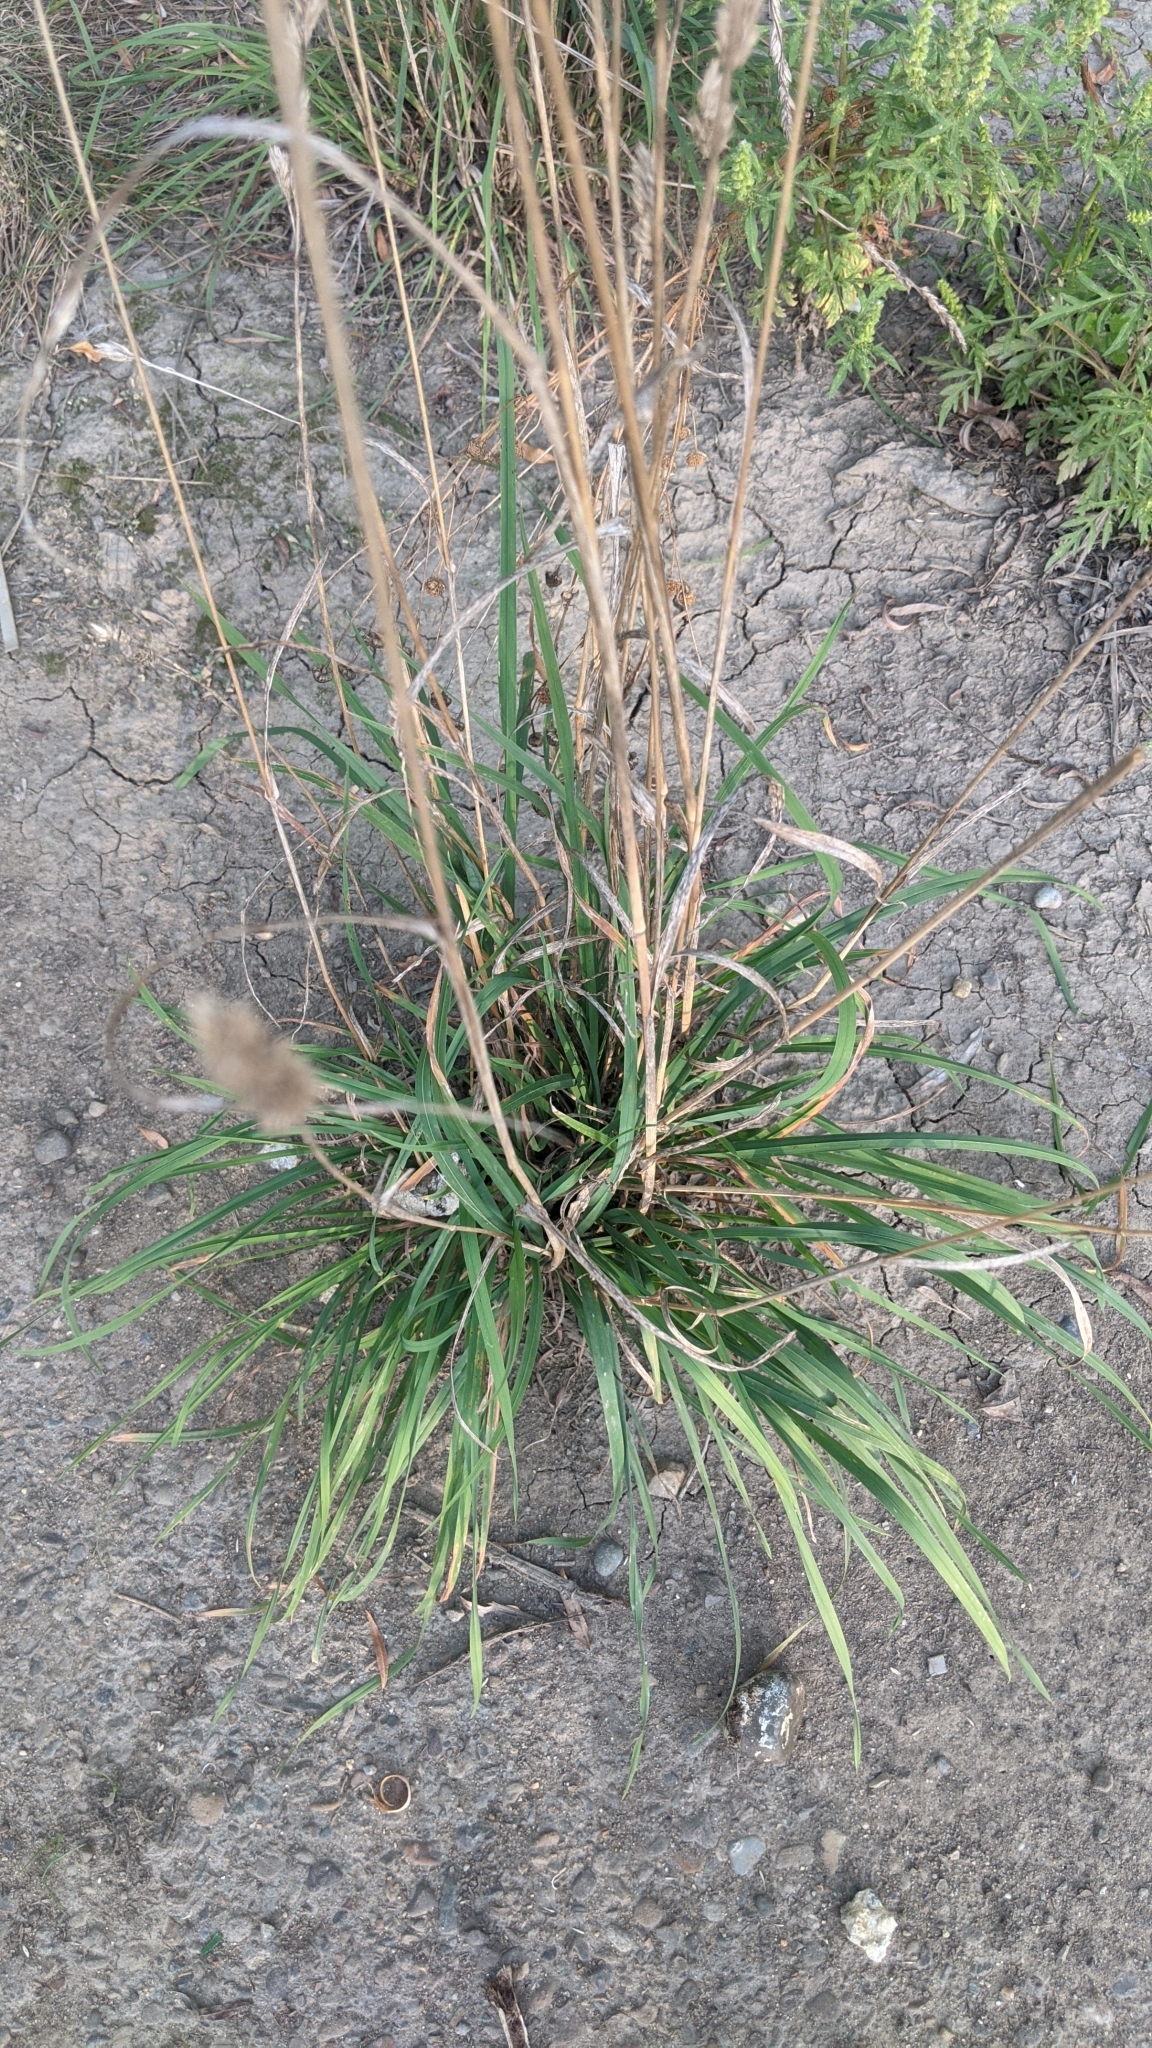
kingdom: Plantae
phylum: Tracheophyta
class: Liliopsida
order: Poales
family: Poaceae
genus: Dactylis
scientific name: Dactylis glomerata
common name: Orchardgrass
